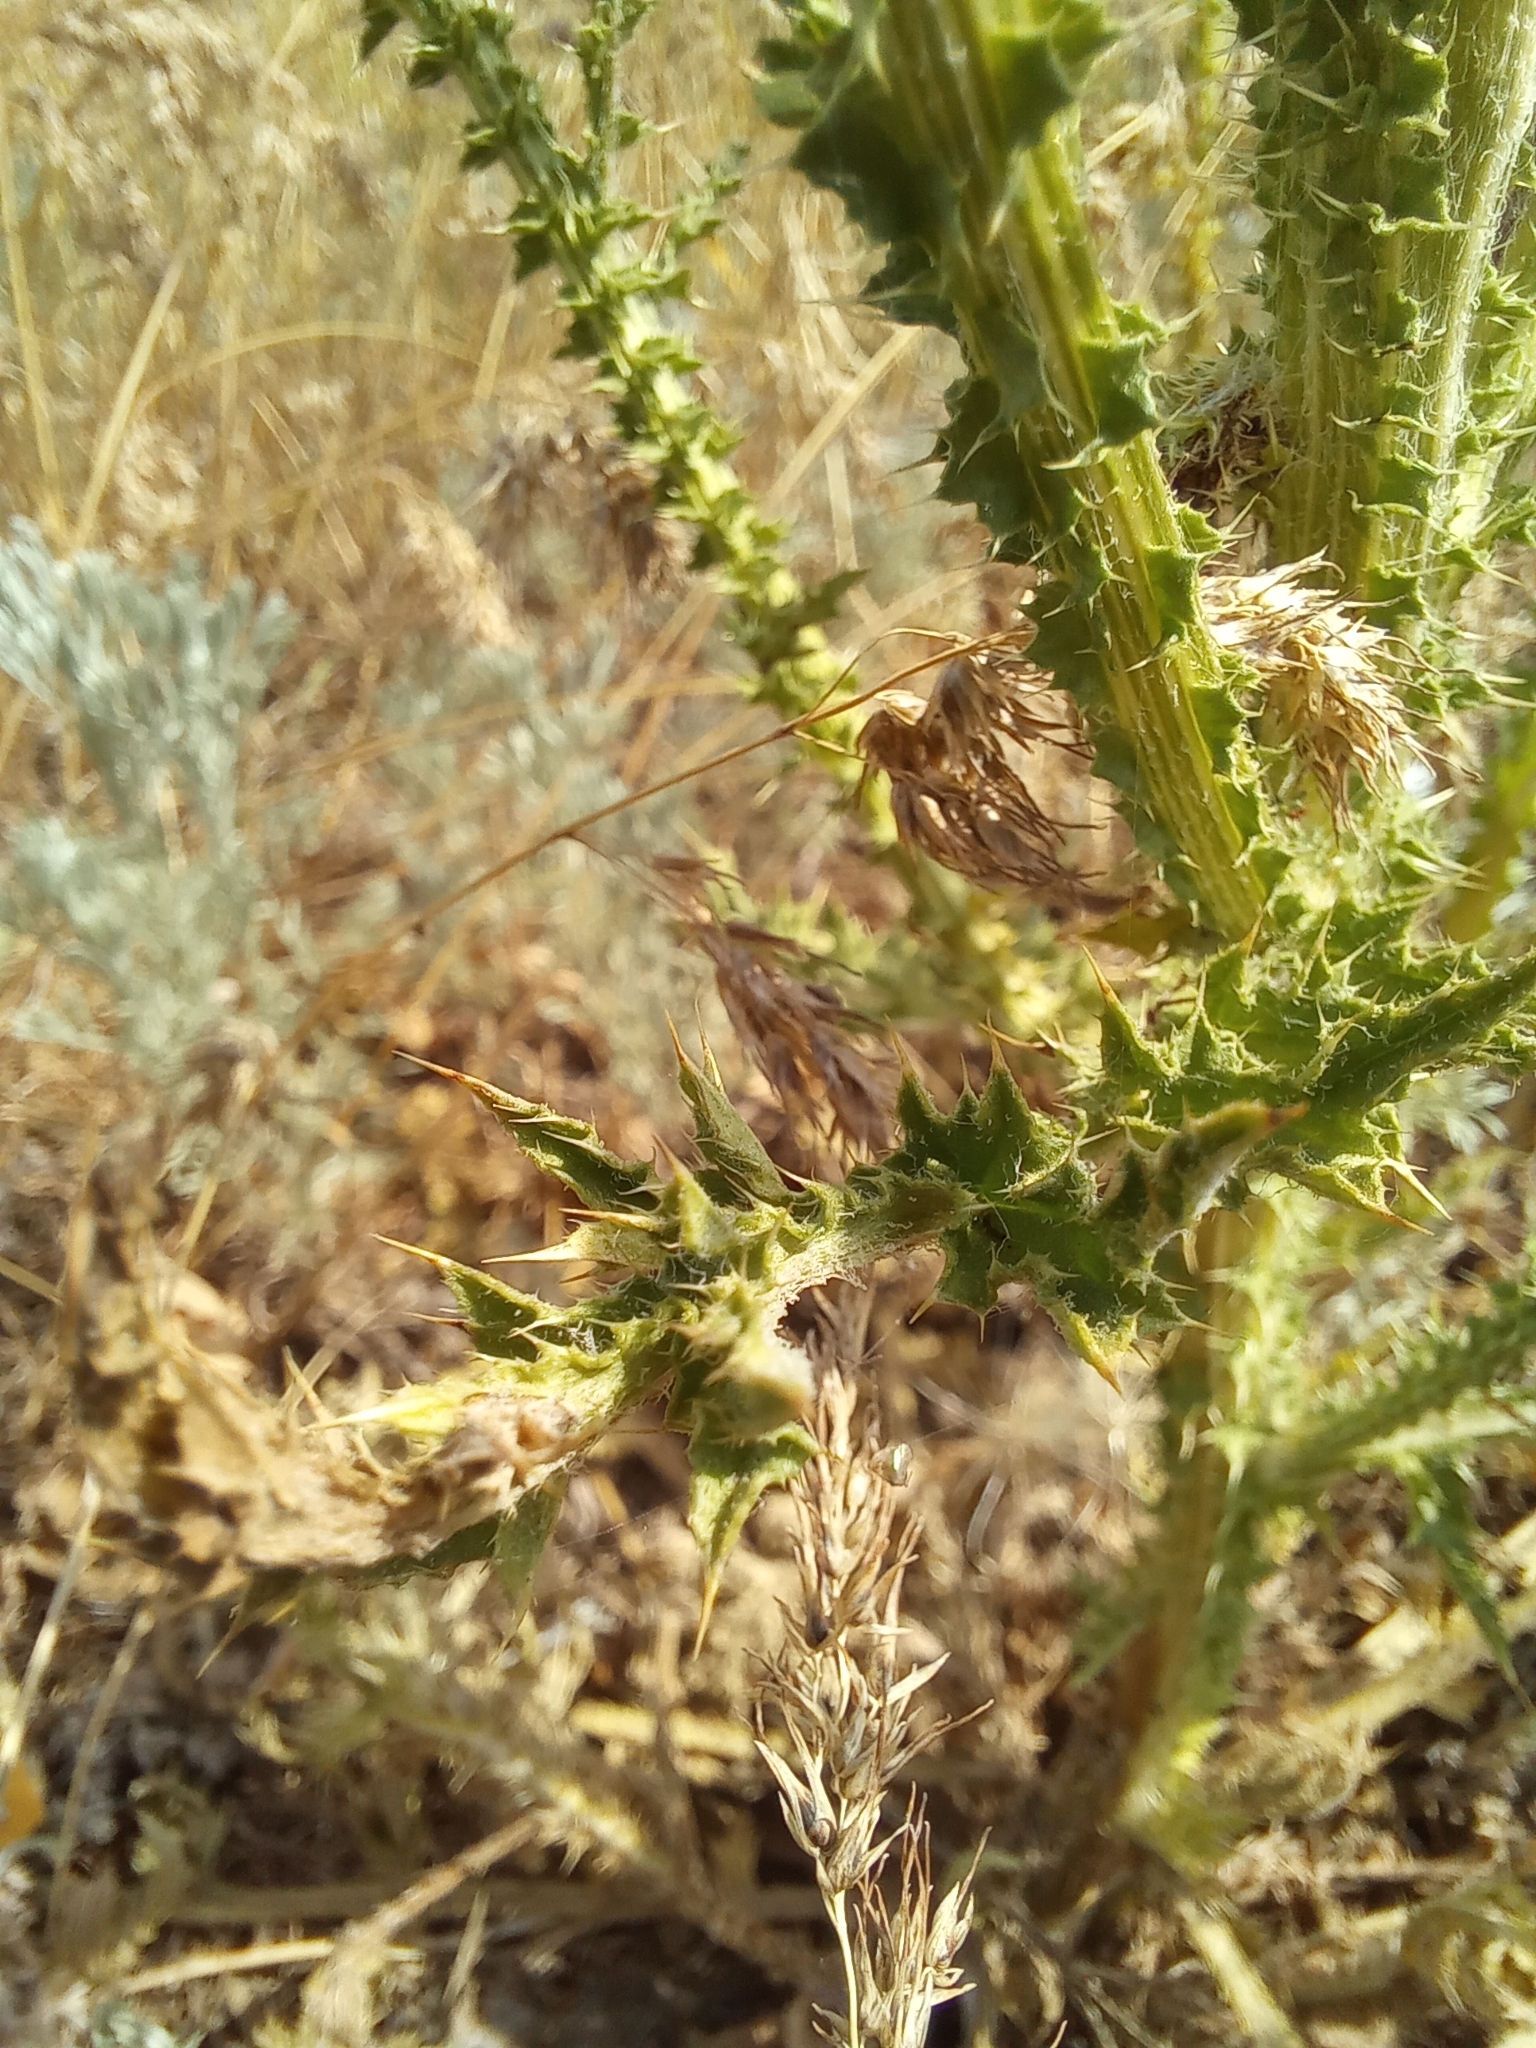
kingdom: Plantae
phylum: Tracheophyta
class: Magnoliopsida
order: Asterales
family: Asteraceae
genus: Carduus
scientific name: Carduus acanthoides
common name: Plumeless thistle
